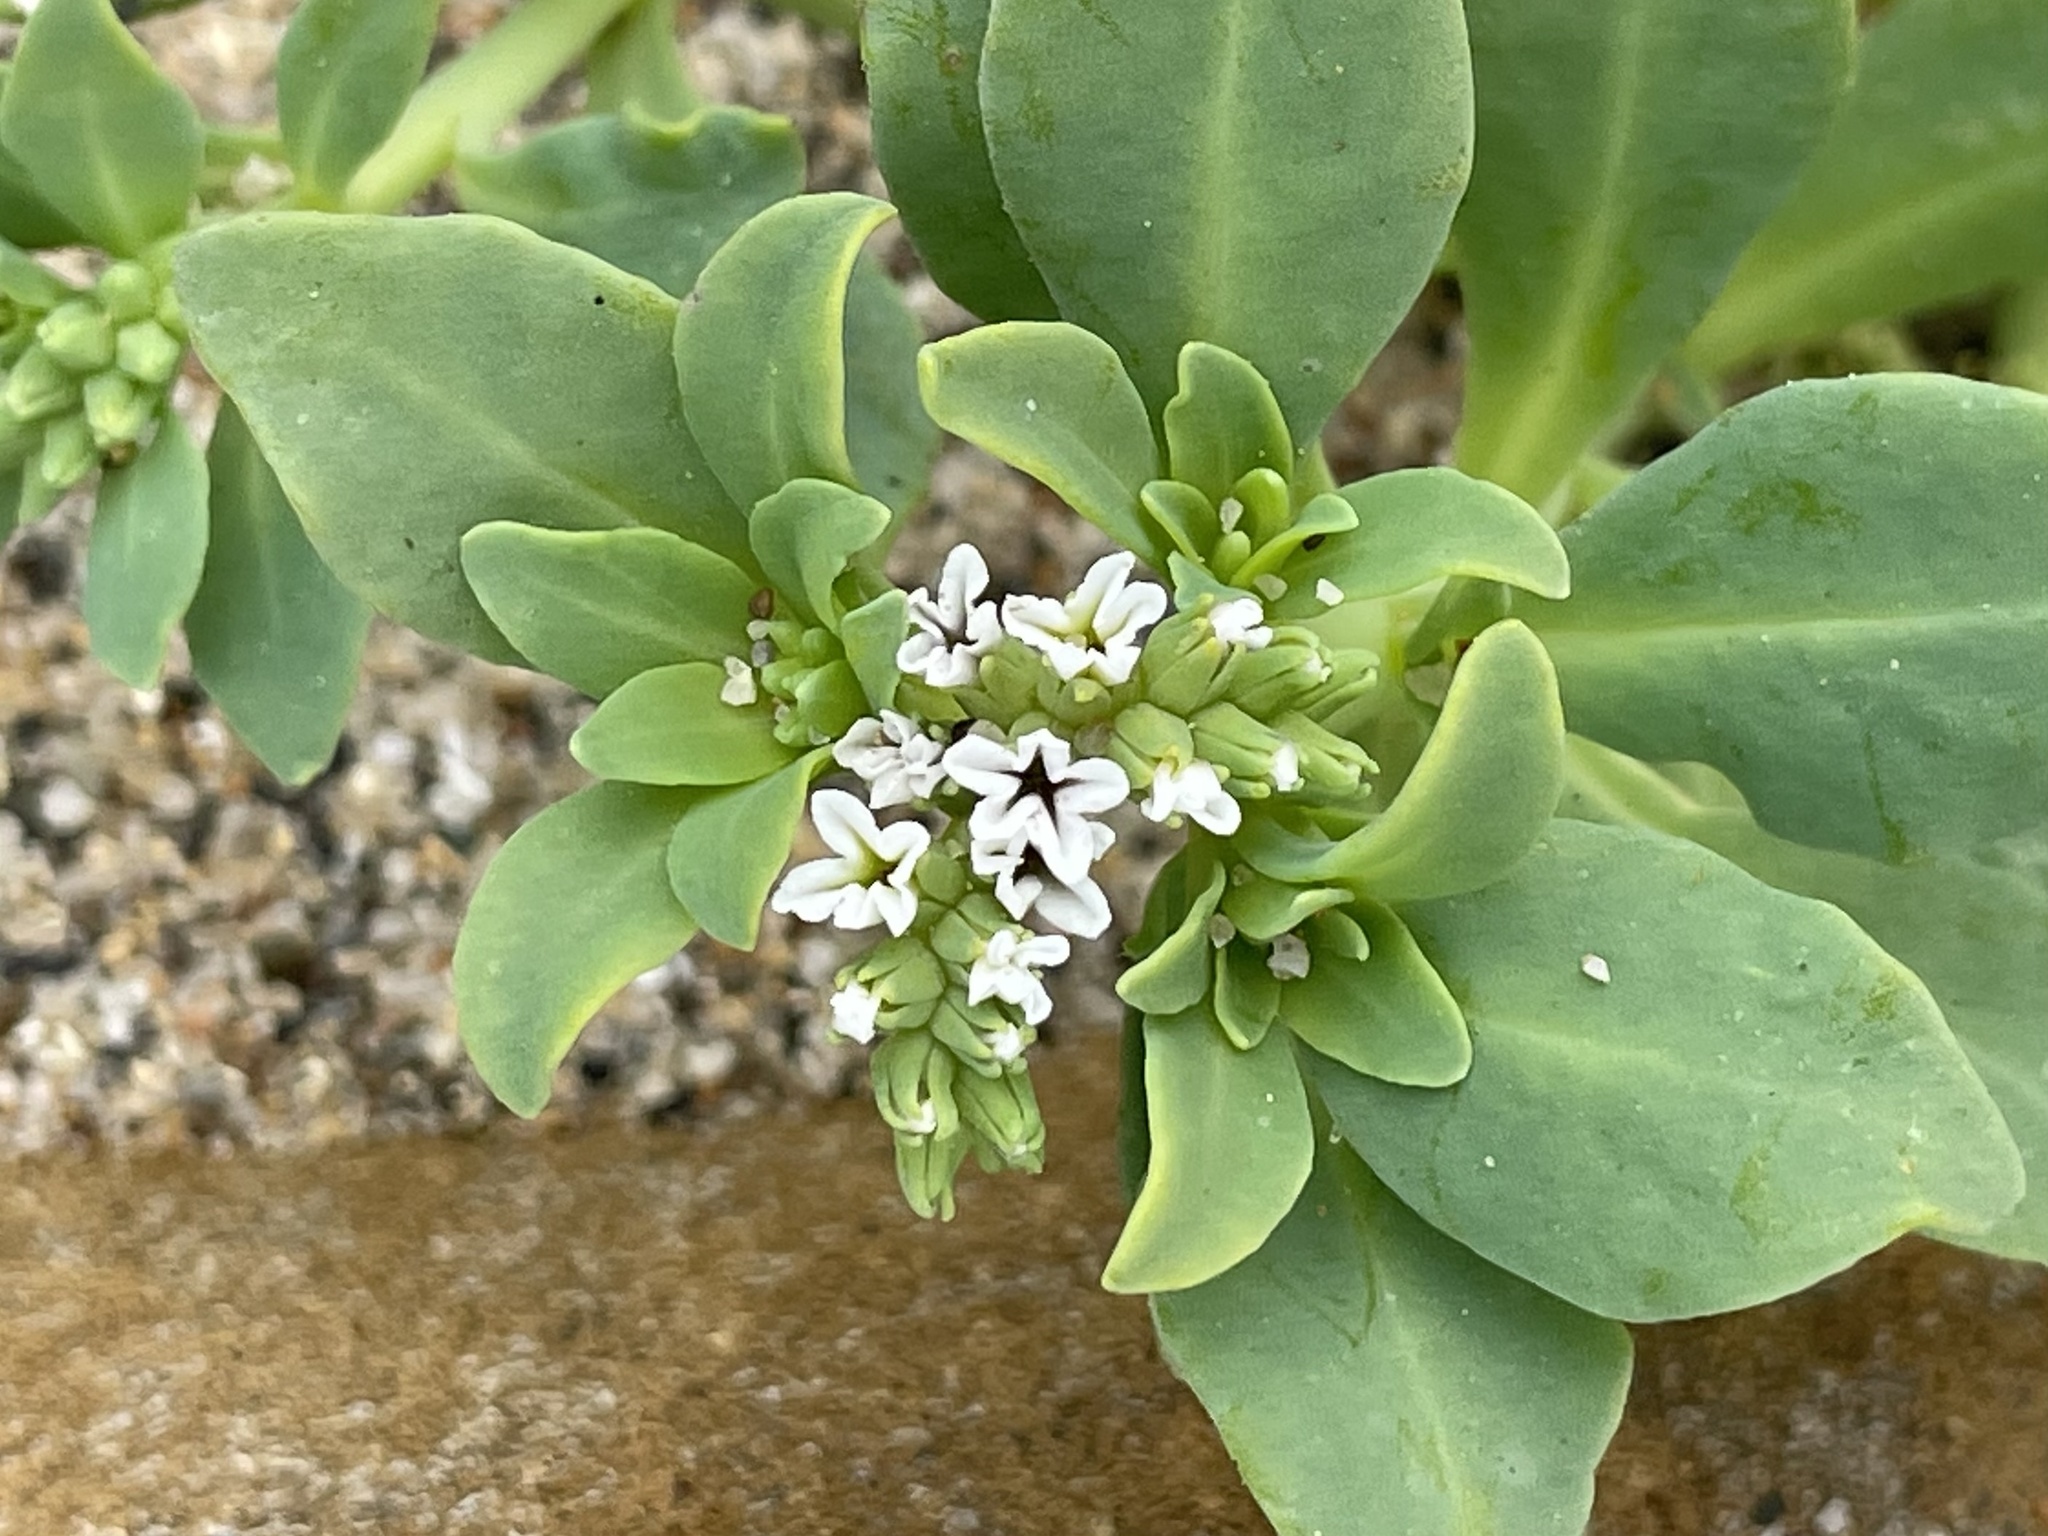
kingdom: Plantae
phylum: Tracheophyta
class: Magnoliopsida
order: Boraginales
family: Heliotropiaceae
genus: Heliotropium
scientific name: Heliotropium curassavicum
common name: Seaside heliotrope
